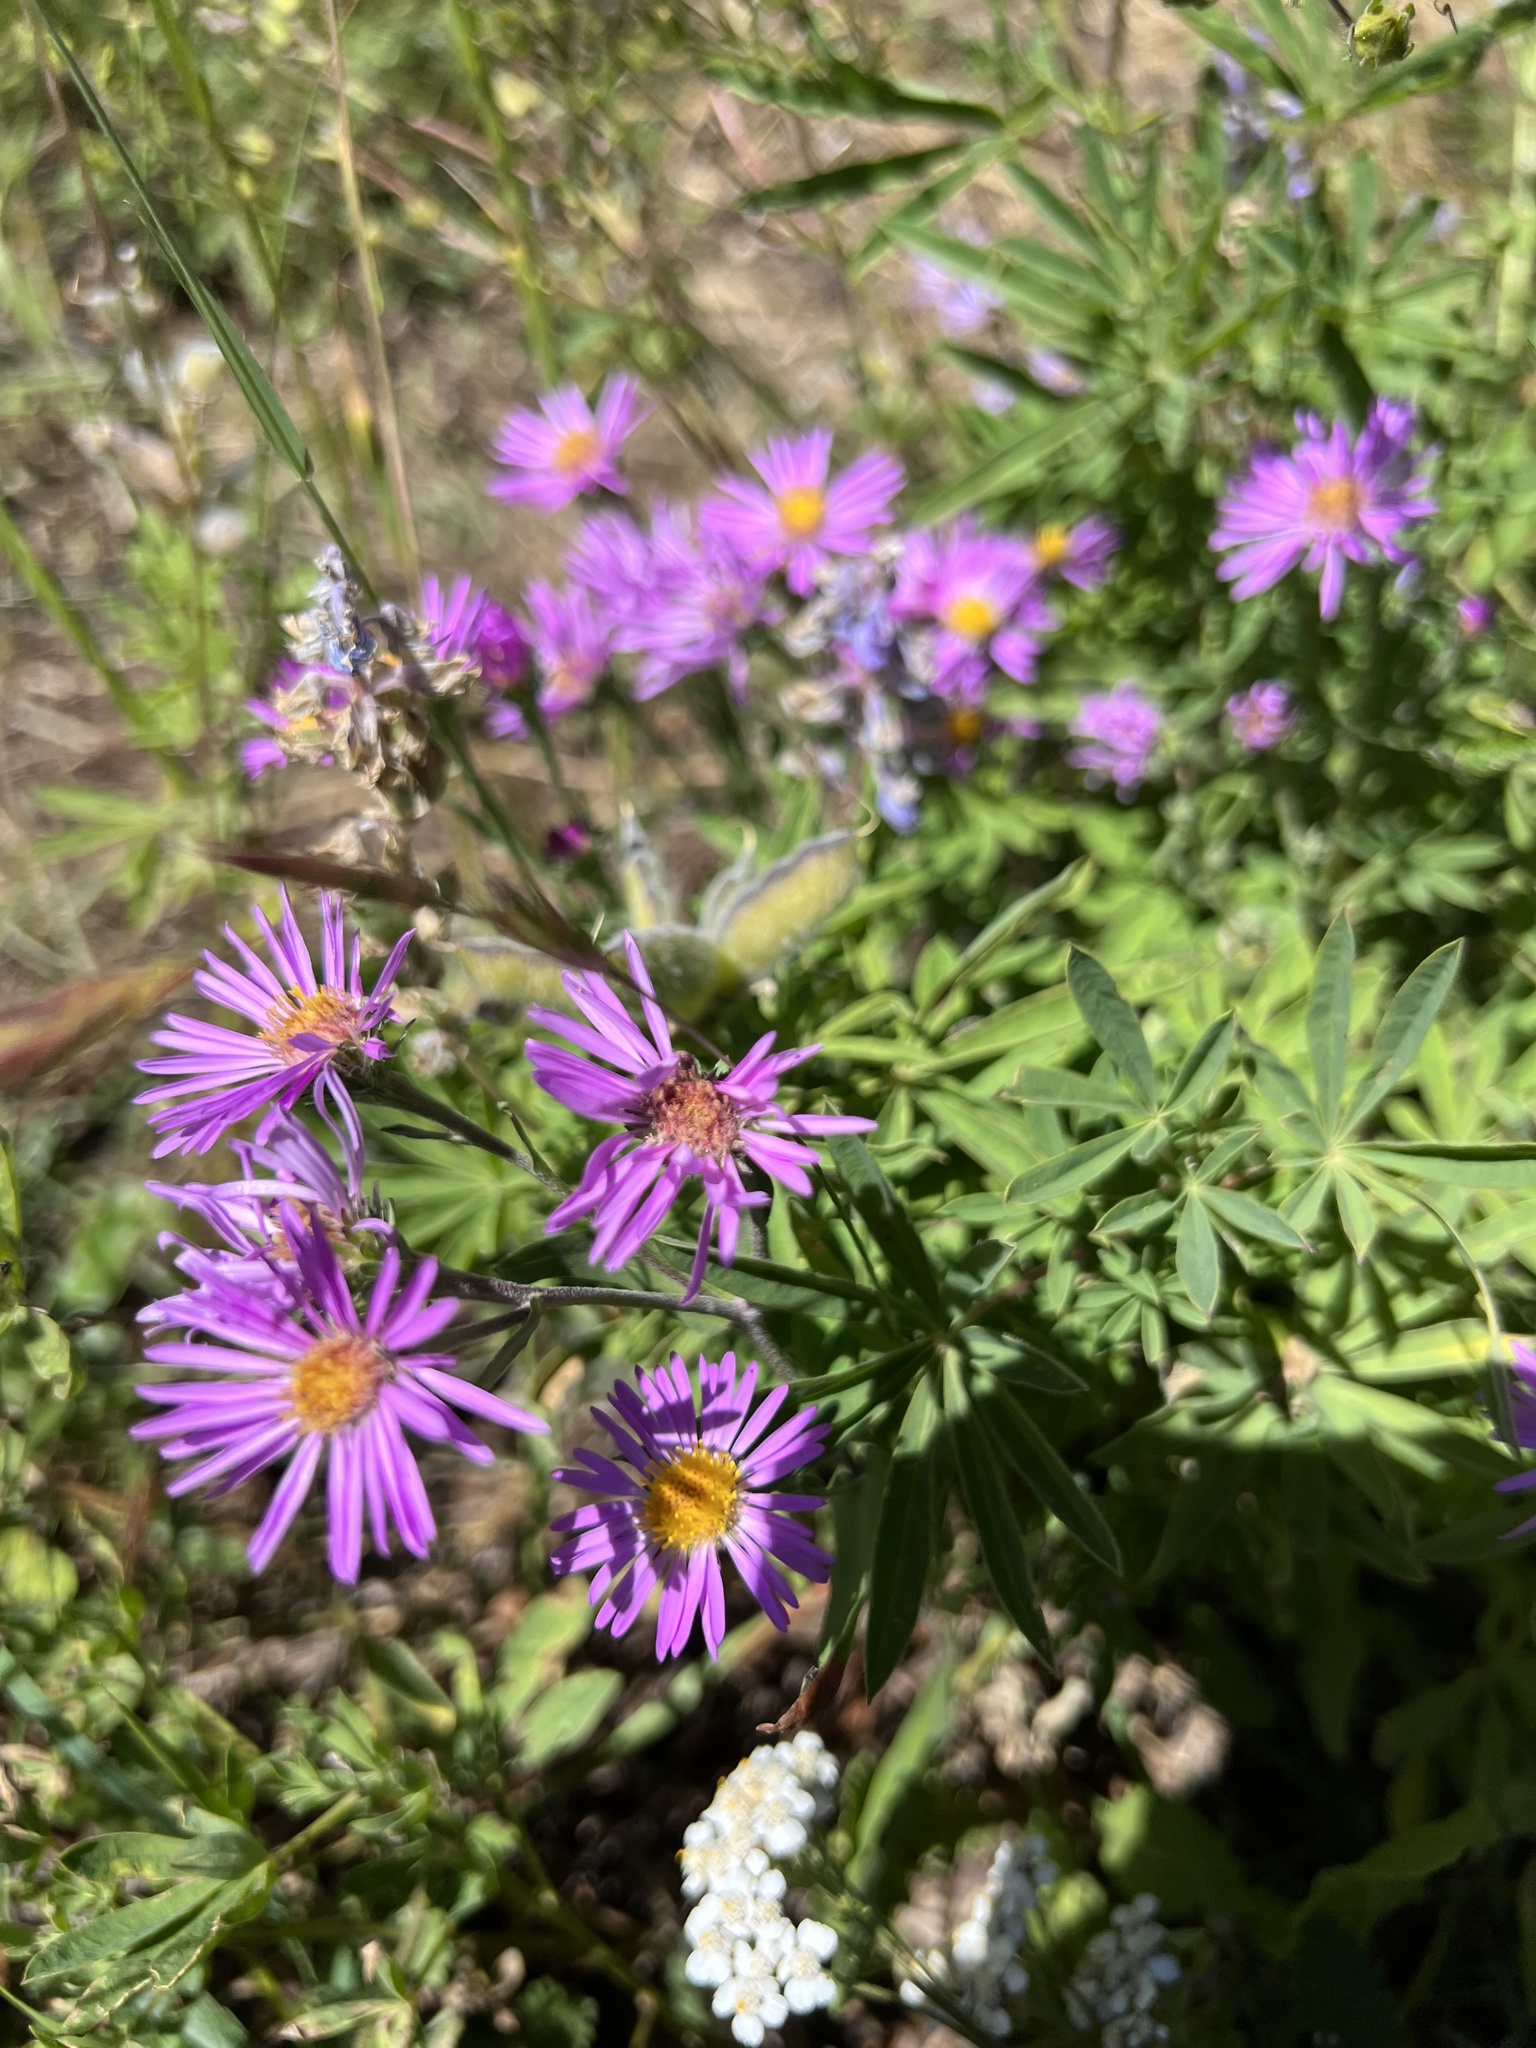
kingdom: Plantae
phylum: Tracheophyta
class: Magnoliopsida
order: Asterales
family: Asteraceae
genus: Symphyotrichum
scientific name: Symphyotrichum novae-angliae
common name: Michaelmas daisy
